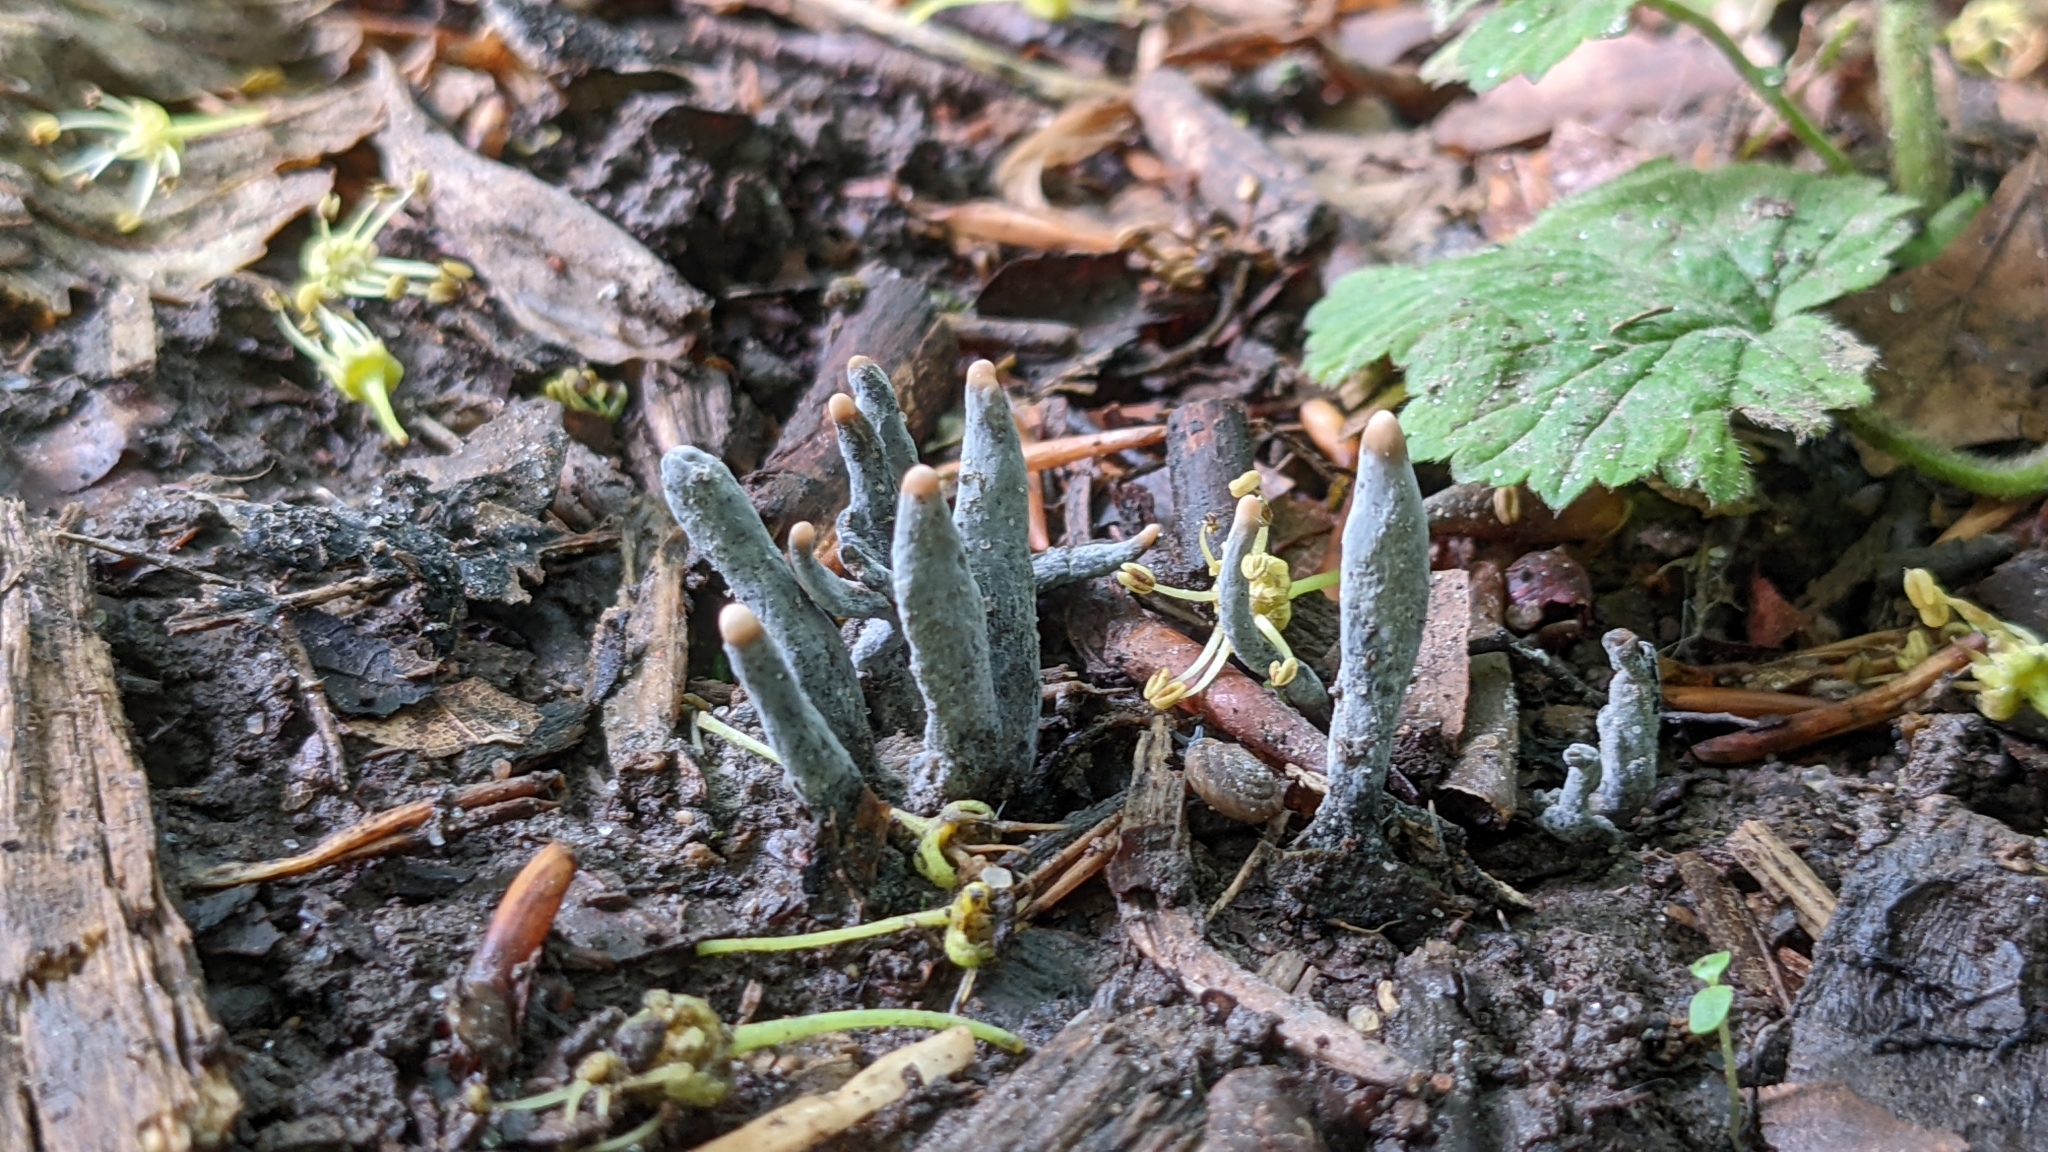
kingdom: Fungi
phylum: Ascomycota
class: Sordariomycetes
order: Xylariales
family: Xylariaceae
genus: Xylaria
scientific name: Xylaria polymorpha
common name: Dead man's fingers
